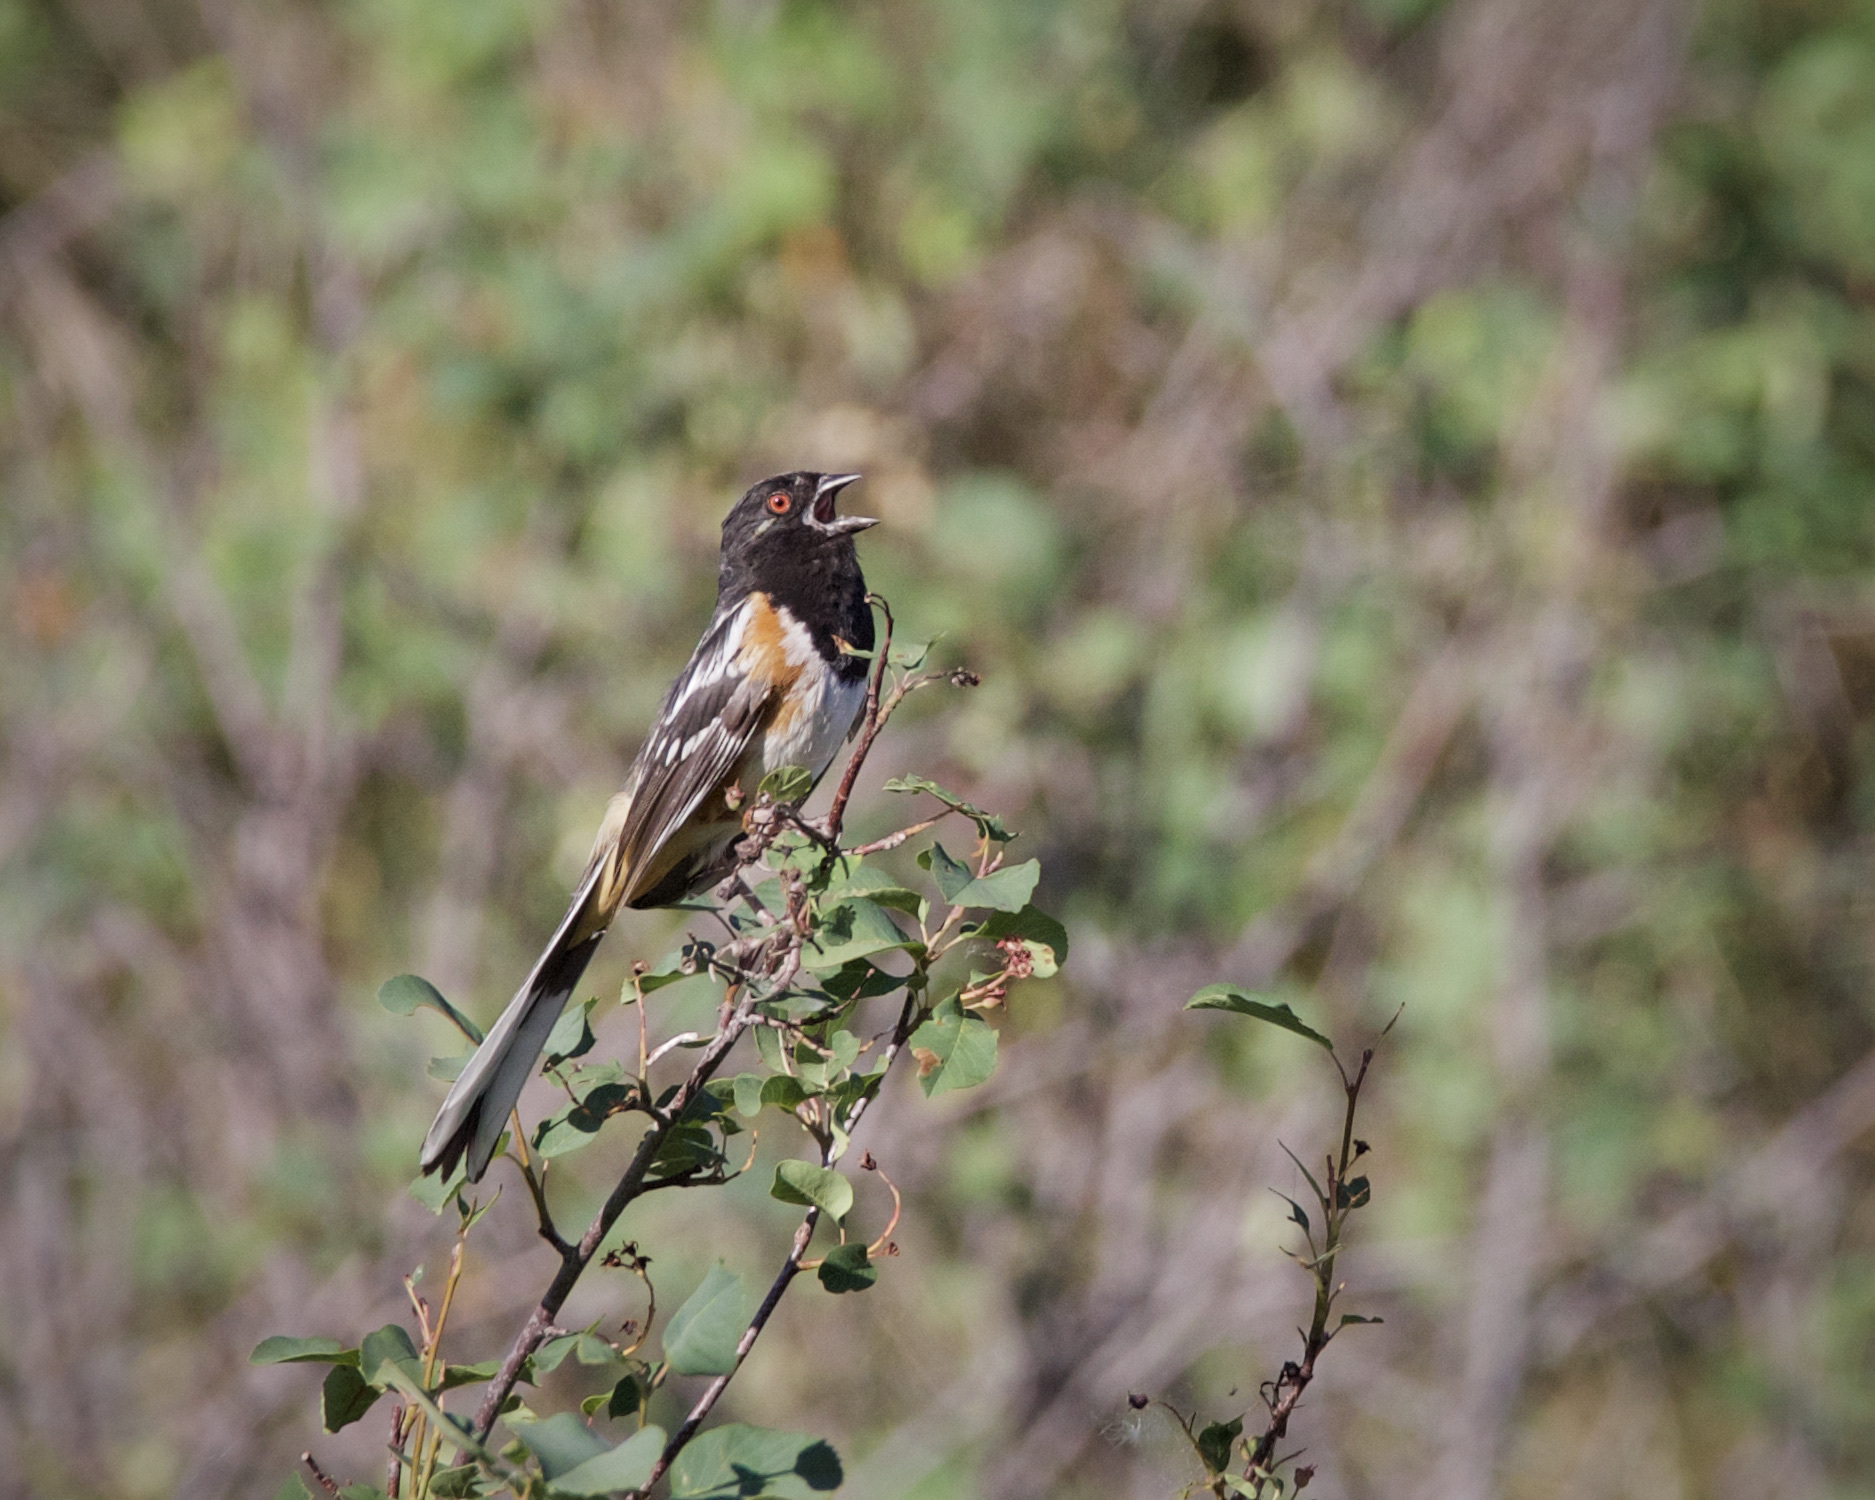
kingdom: Animalia
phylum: Chordata
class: Aves
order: Passeriformes
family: Passerellidae
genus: Pipilo
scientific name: Pipilo maculatus
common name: Spotted towhee
